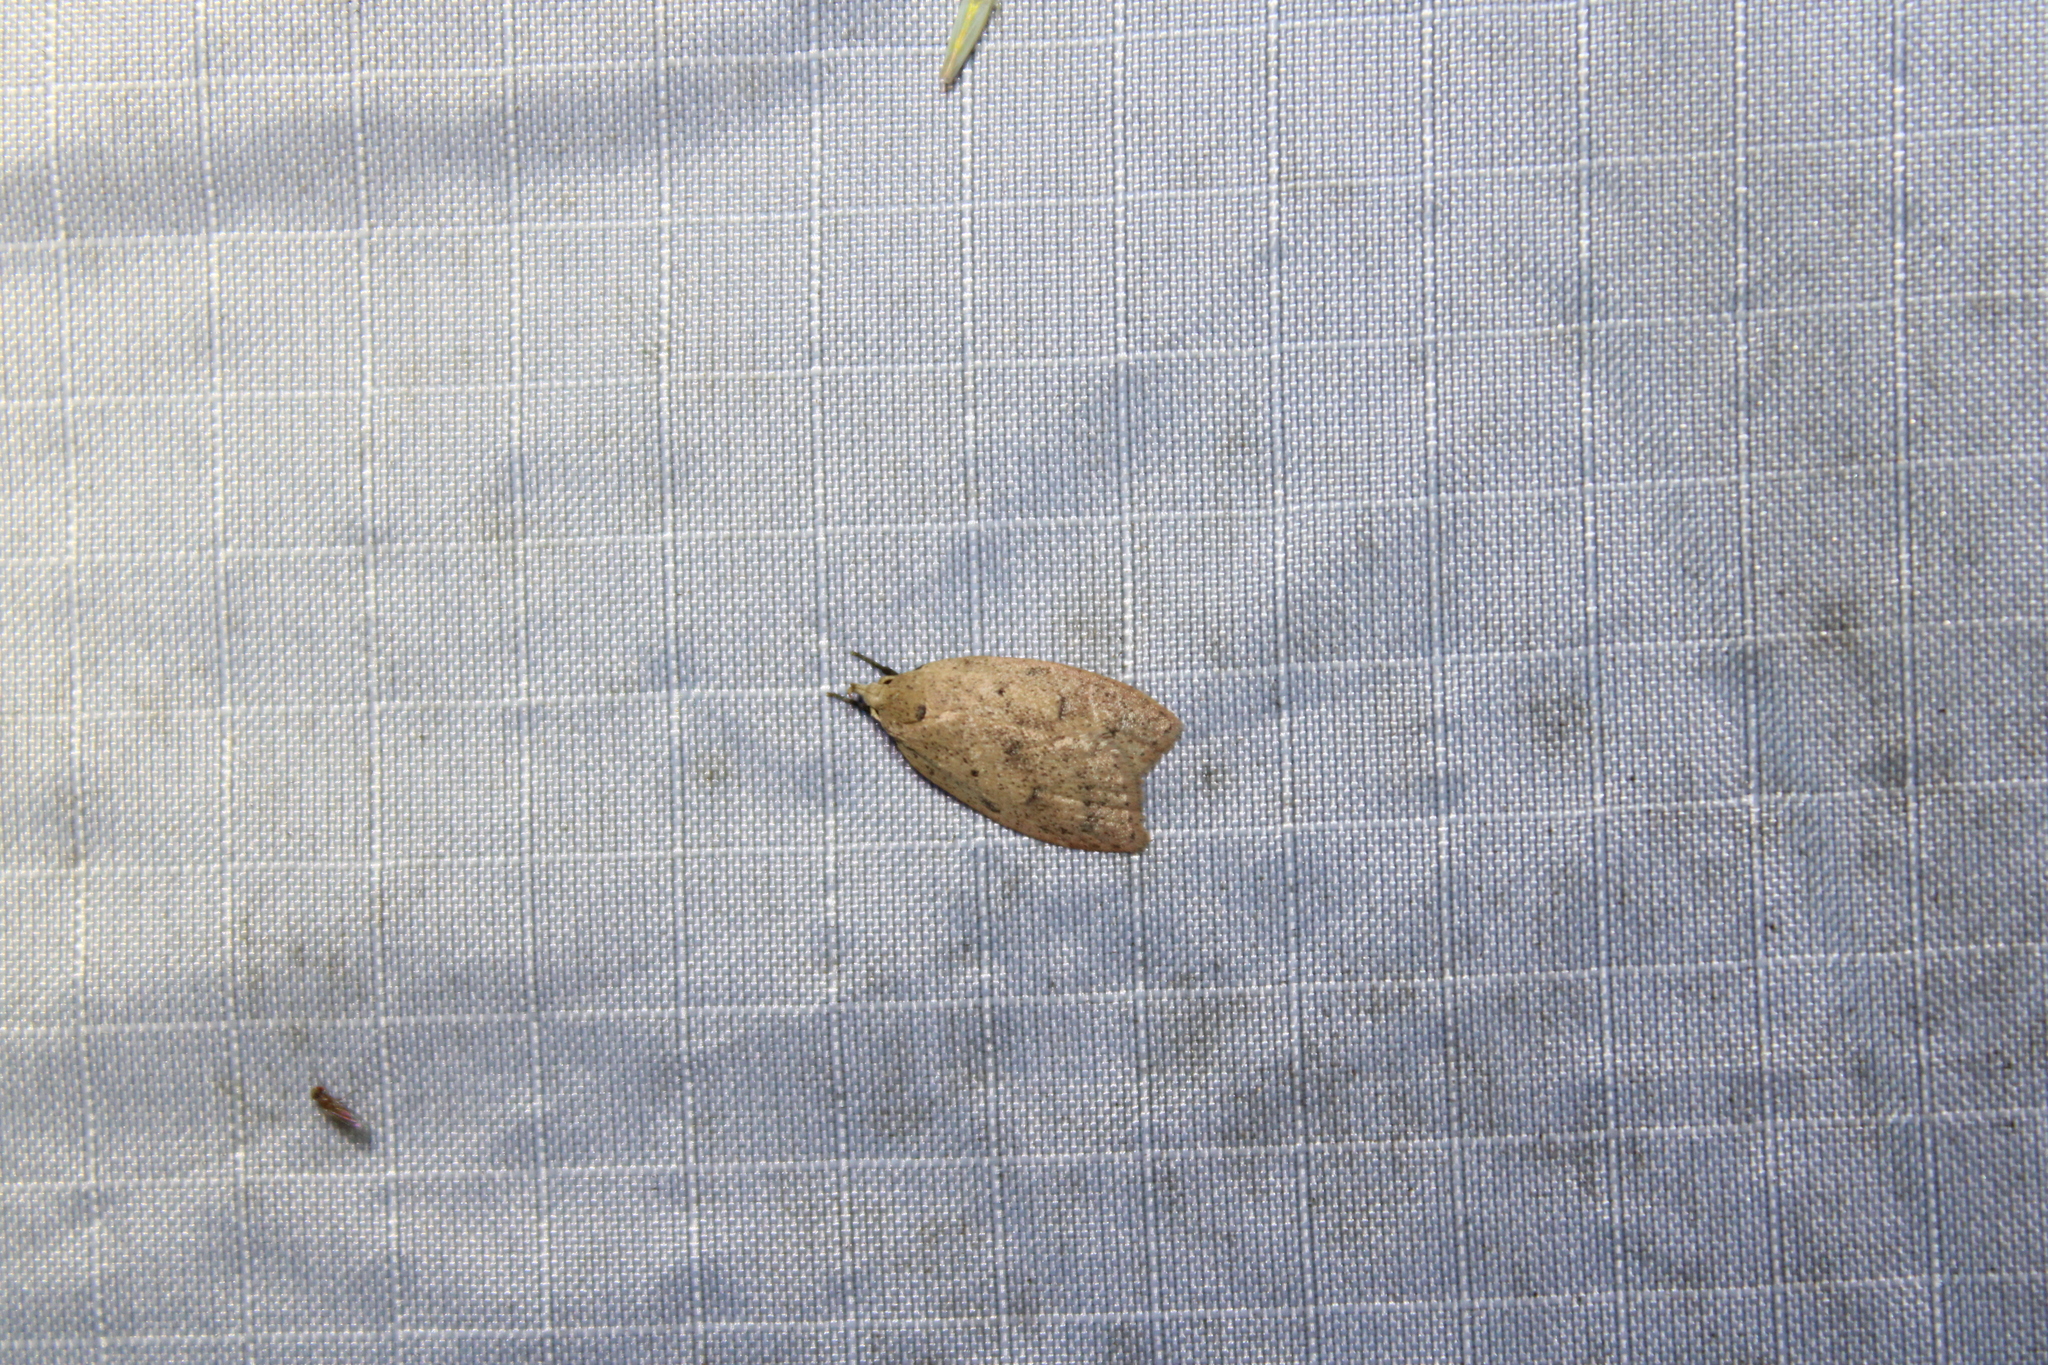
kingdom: Animalia
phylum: Arthropoda
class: Insecta
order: Lepidoptera
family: Peleopodidae
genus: Machimia
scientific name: Machimia tentoriferella
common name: Gold-striped leaftier moth
